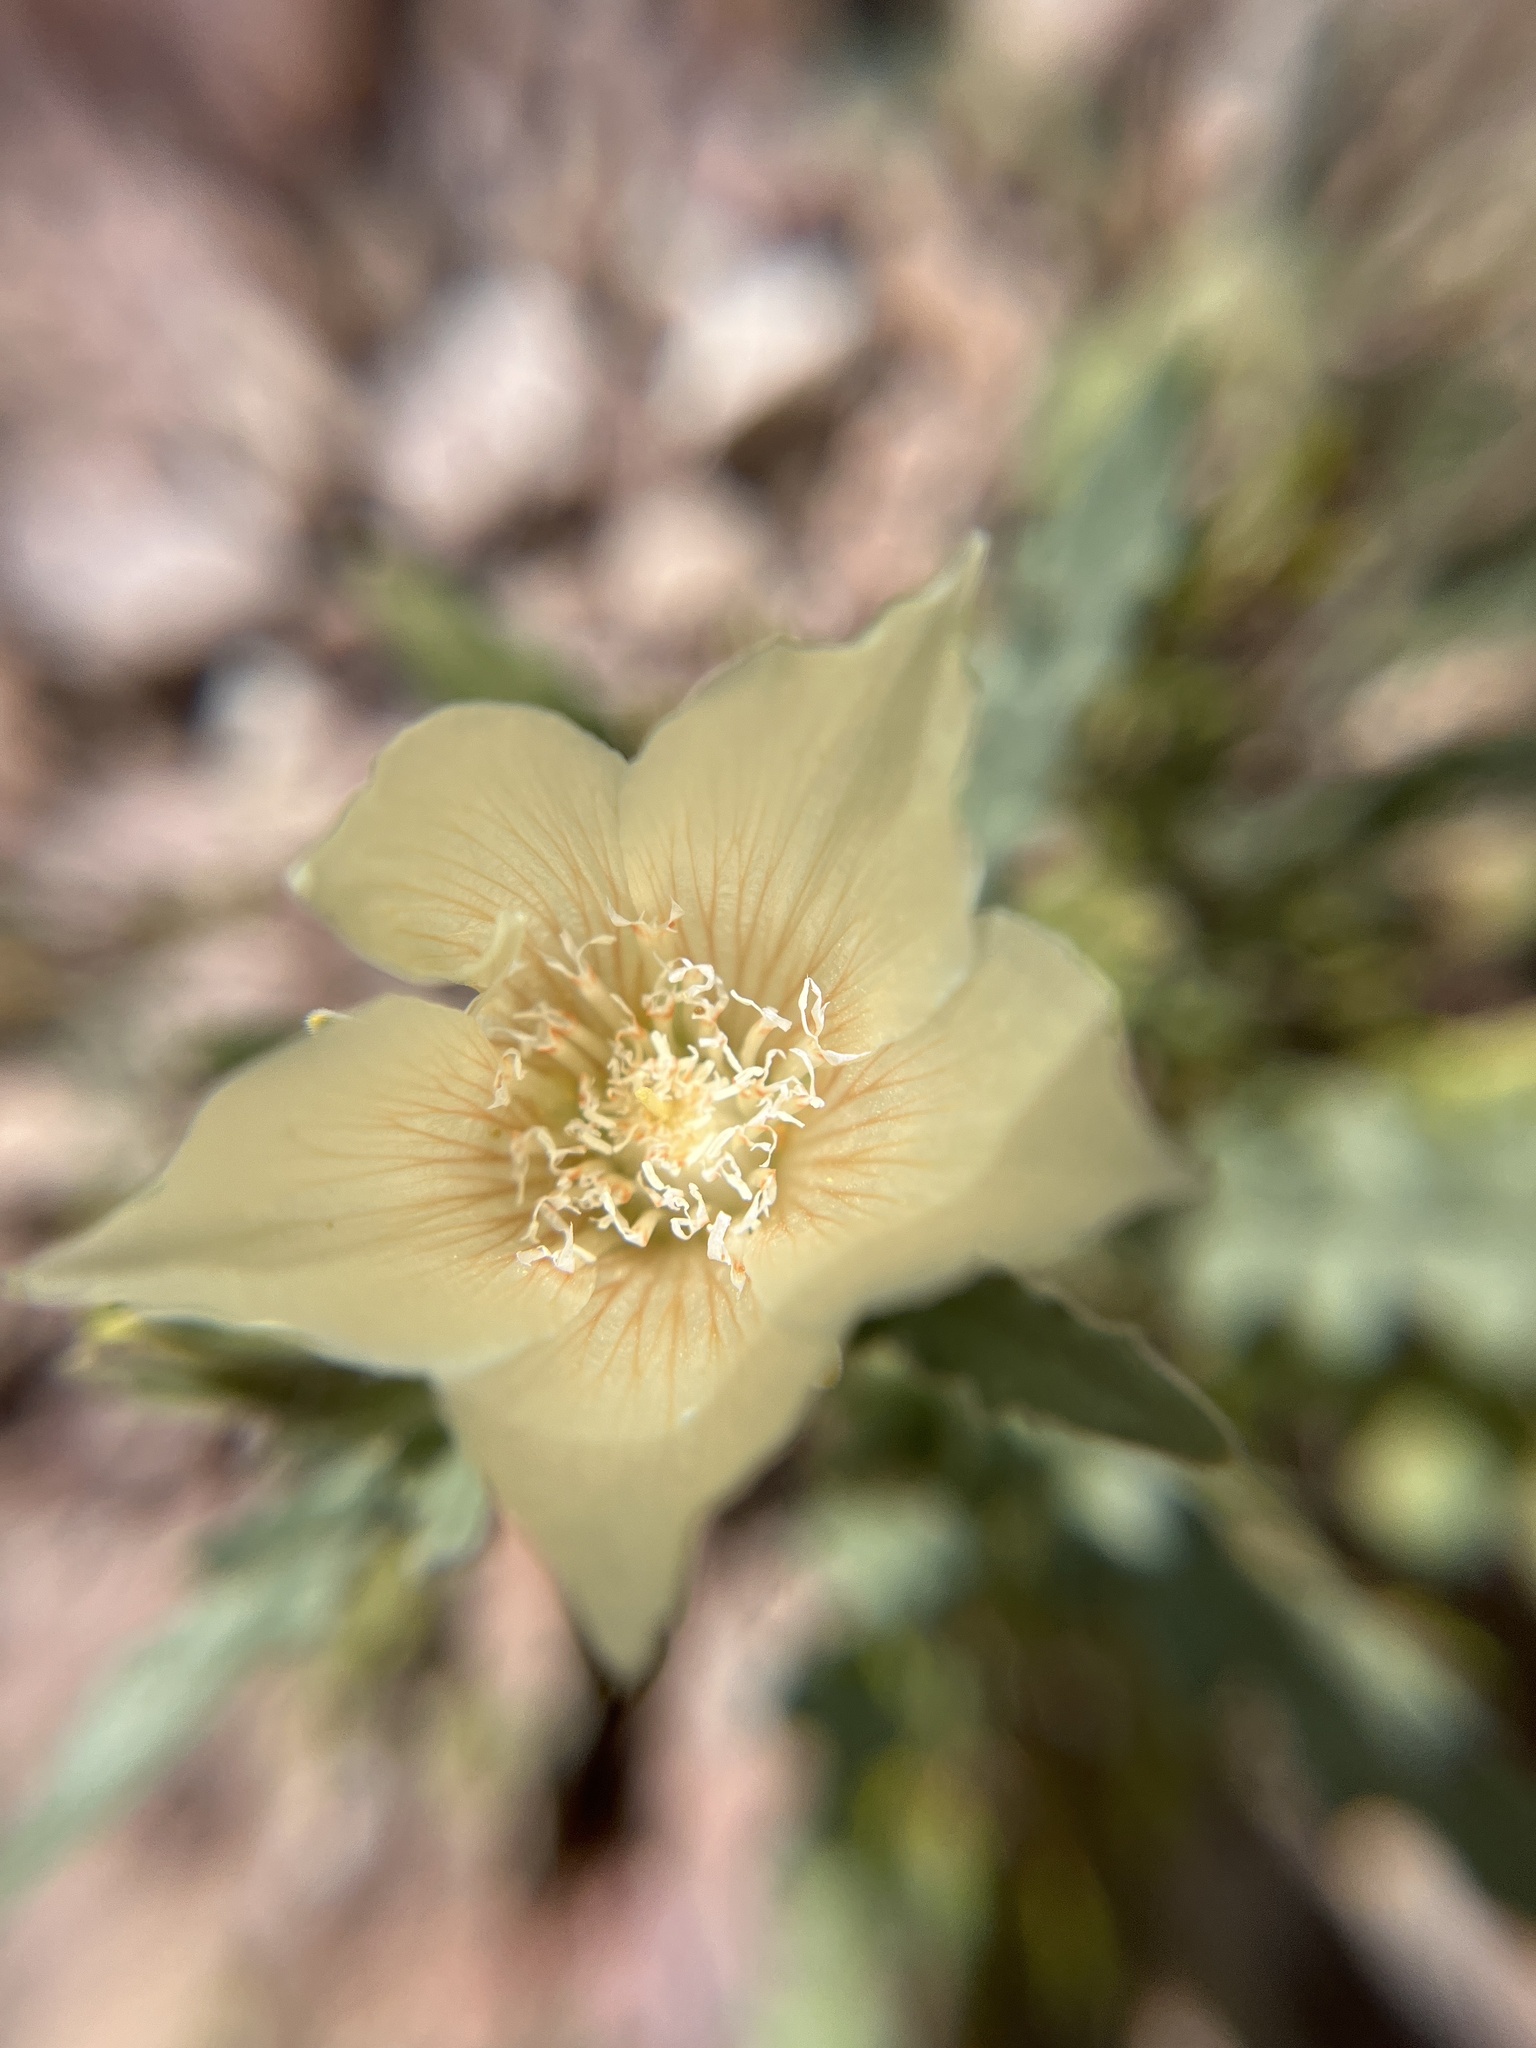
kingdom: Plantae
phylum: Tracheophyta
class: Magnoliopsida
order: Cornales
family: Loasaceae
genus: Mentzelia
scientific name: Mentzelia involucrata
